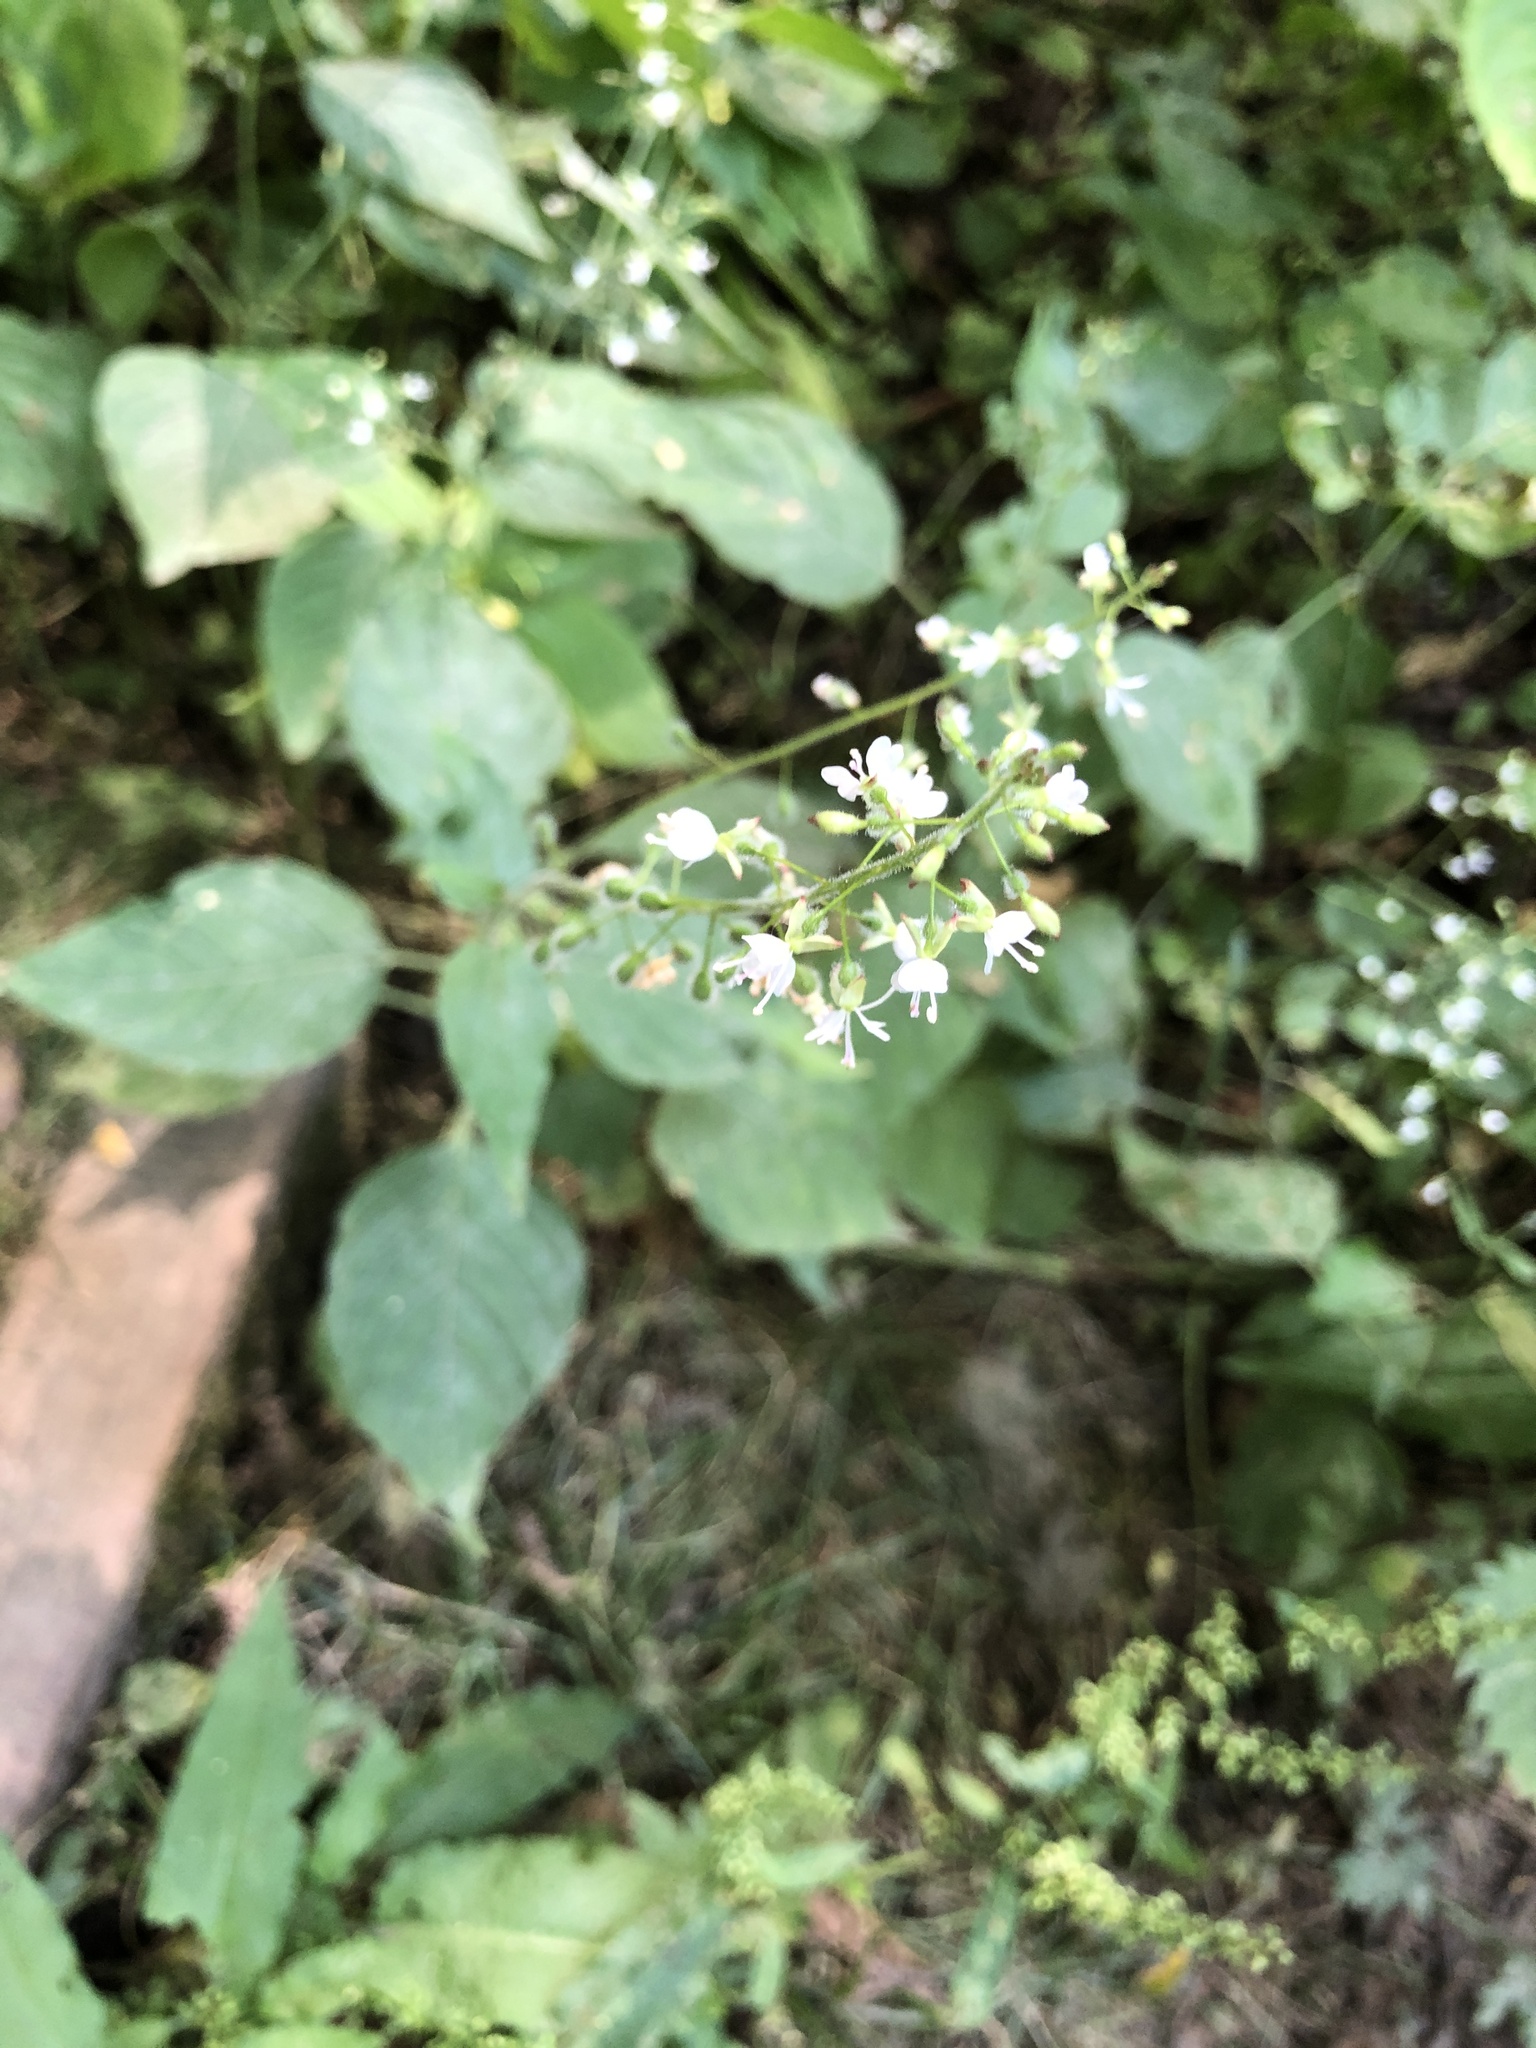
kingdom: Plantae
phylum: Tracheophyta
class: Magnoliopsida
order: Myrtales
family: Onagraceae
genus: Circaea
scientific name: Circaea lutetiana
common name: Enchanter's-nightshade
